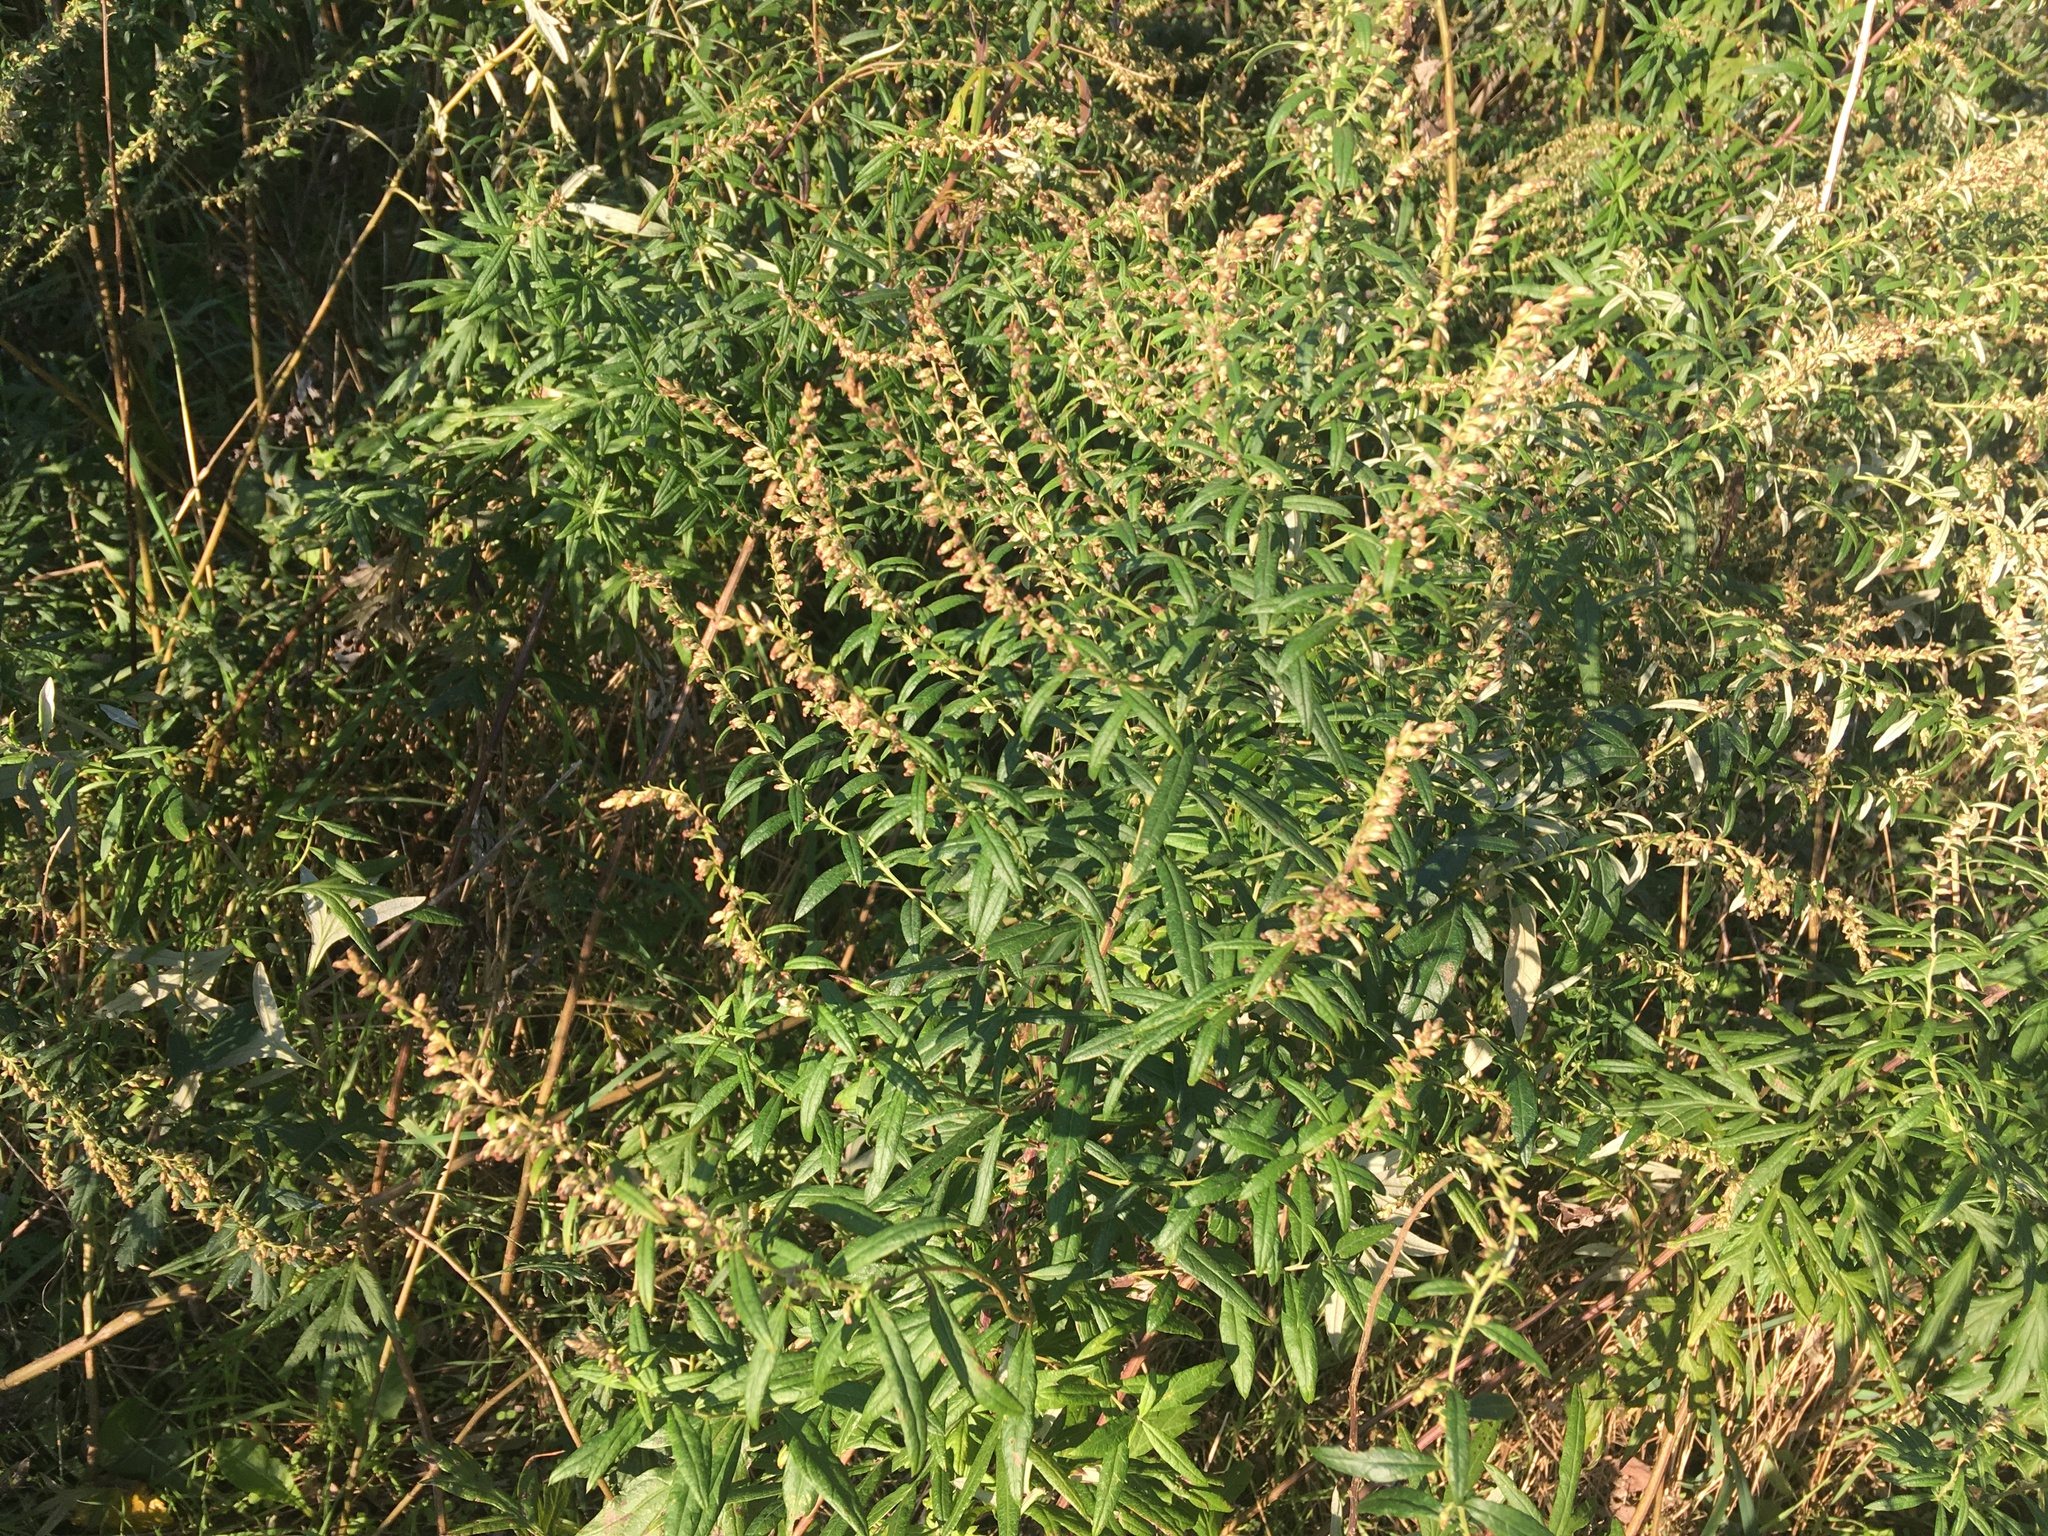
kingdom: Plantae
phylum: Tracheophyta
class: Magnoliopsida
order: Asterales
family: Asteraceae
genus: Artemisia
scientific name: Artemisia vulgaris
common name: Mugwort
